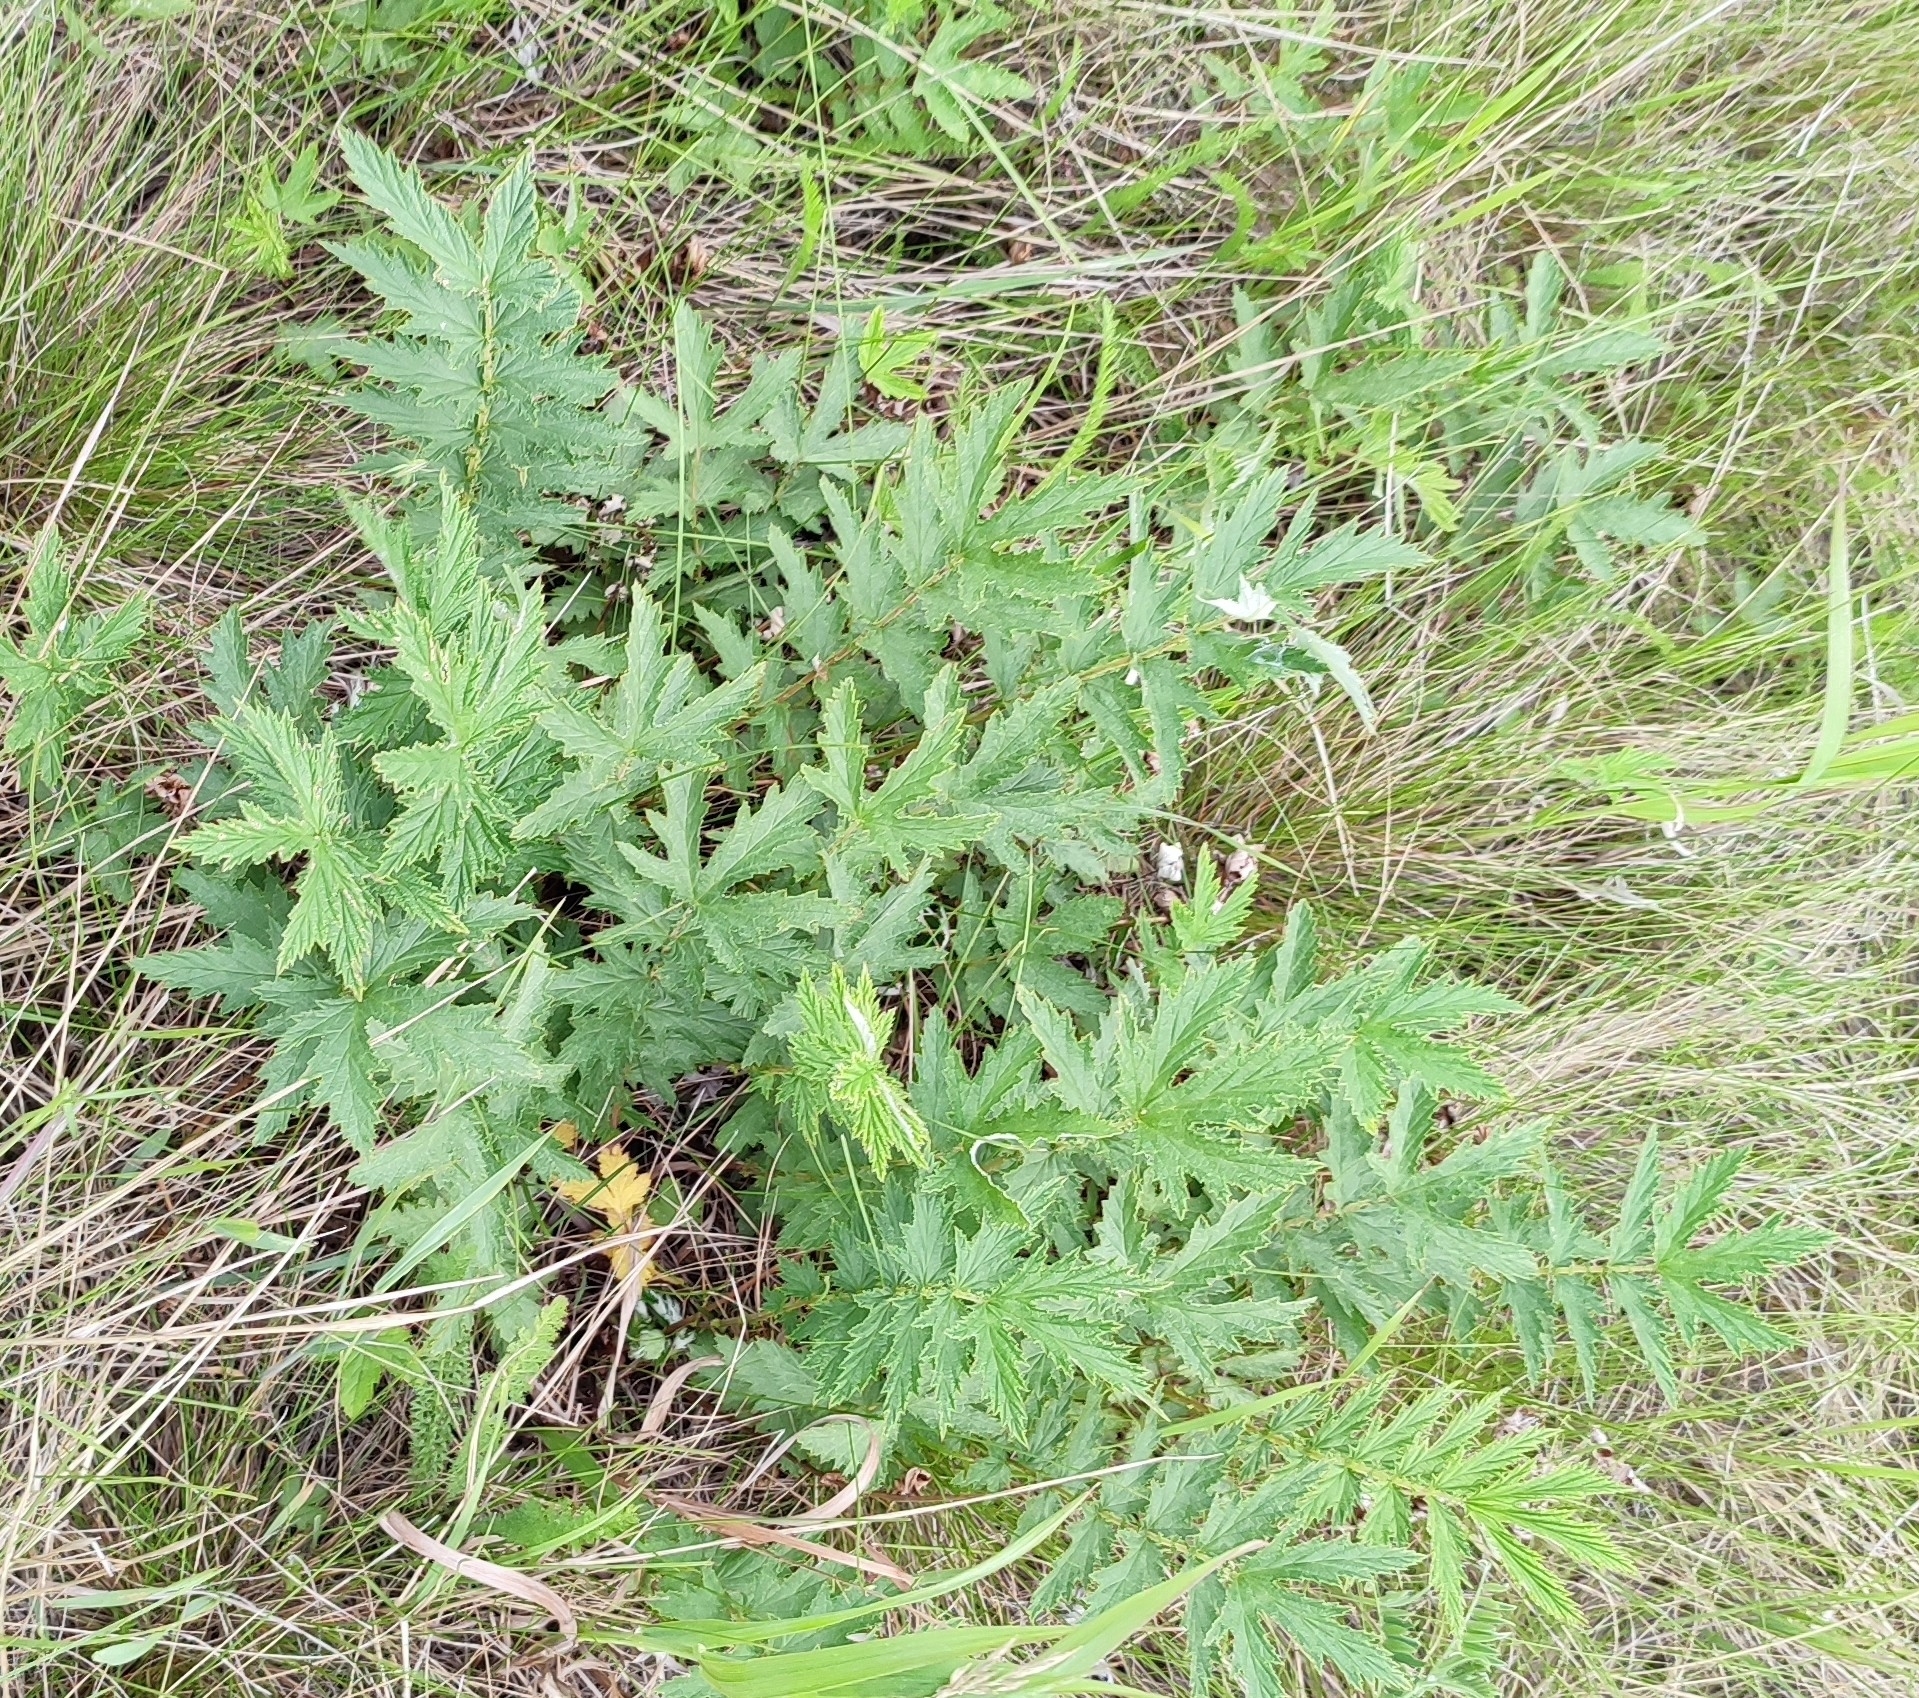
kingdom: Plantae
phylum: Tracheophyta
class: Magnoliopsida
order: Rosales
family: Rosaceae
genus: Filipendula
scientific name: Filipendula ulmaria
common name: Meadowsweet
